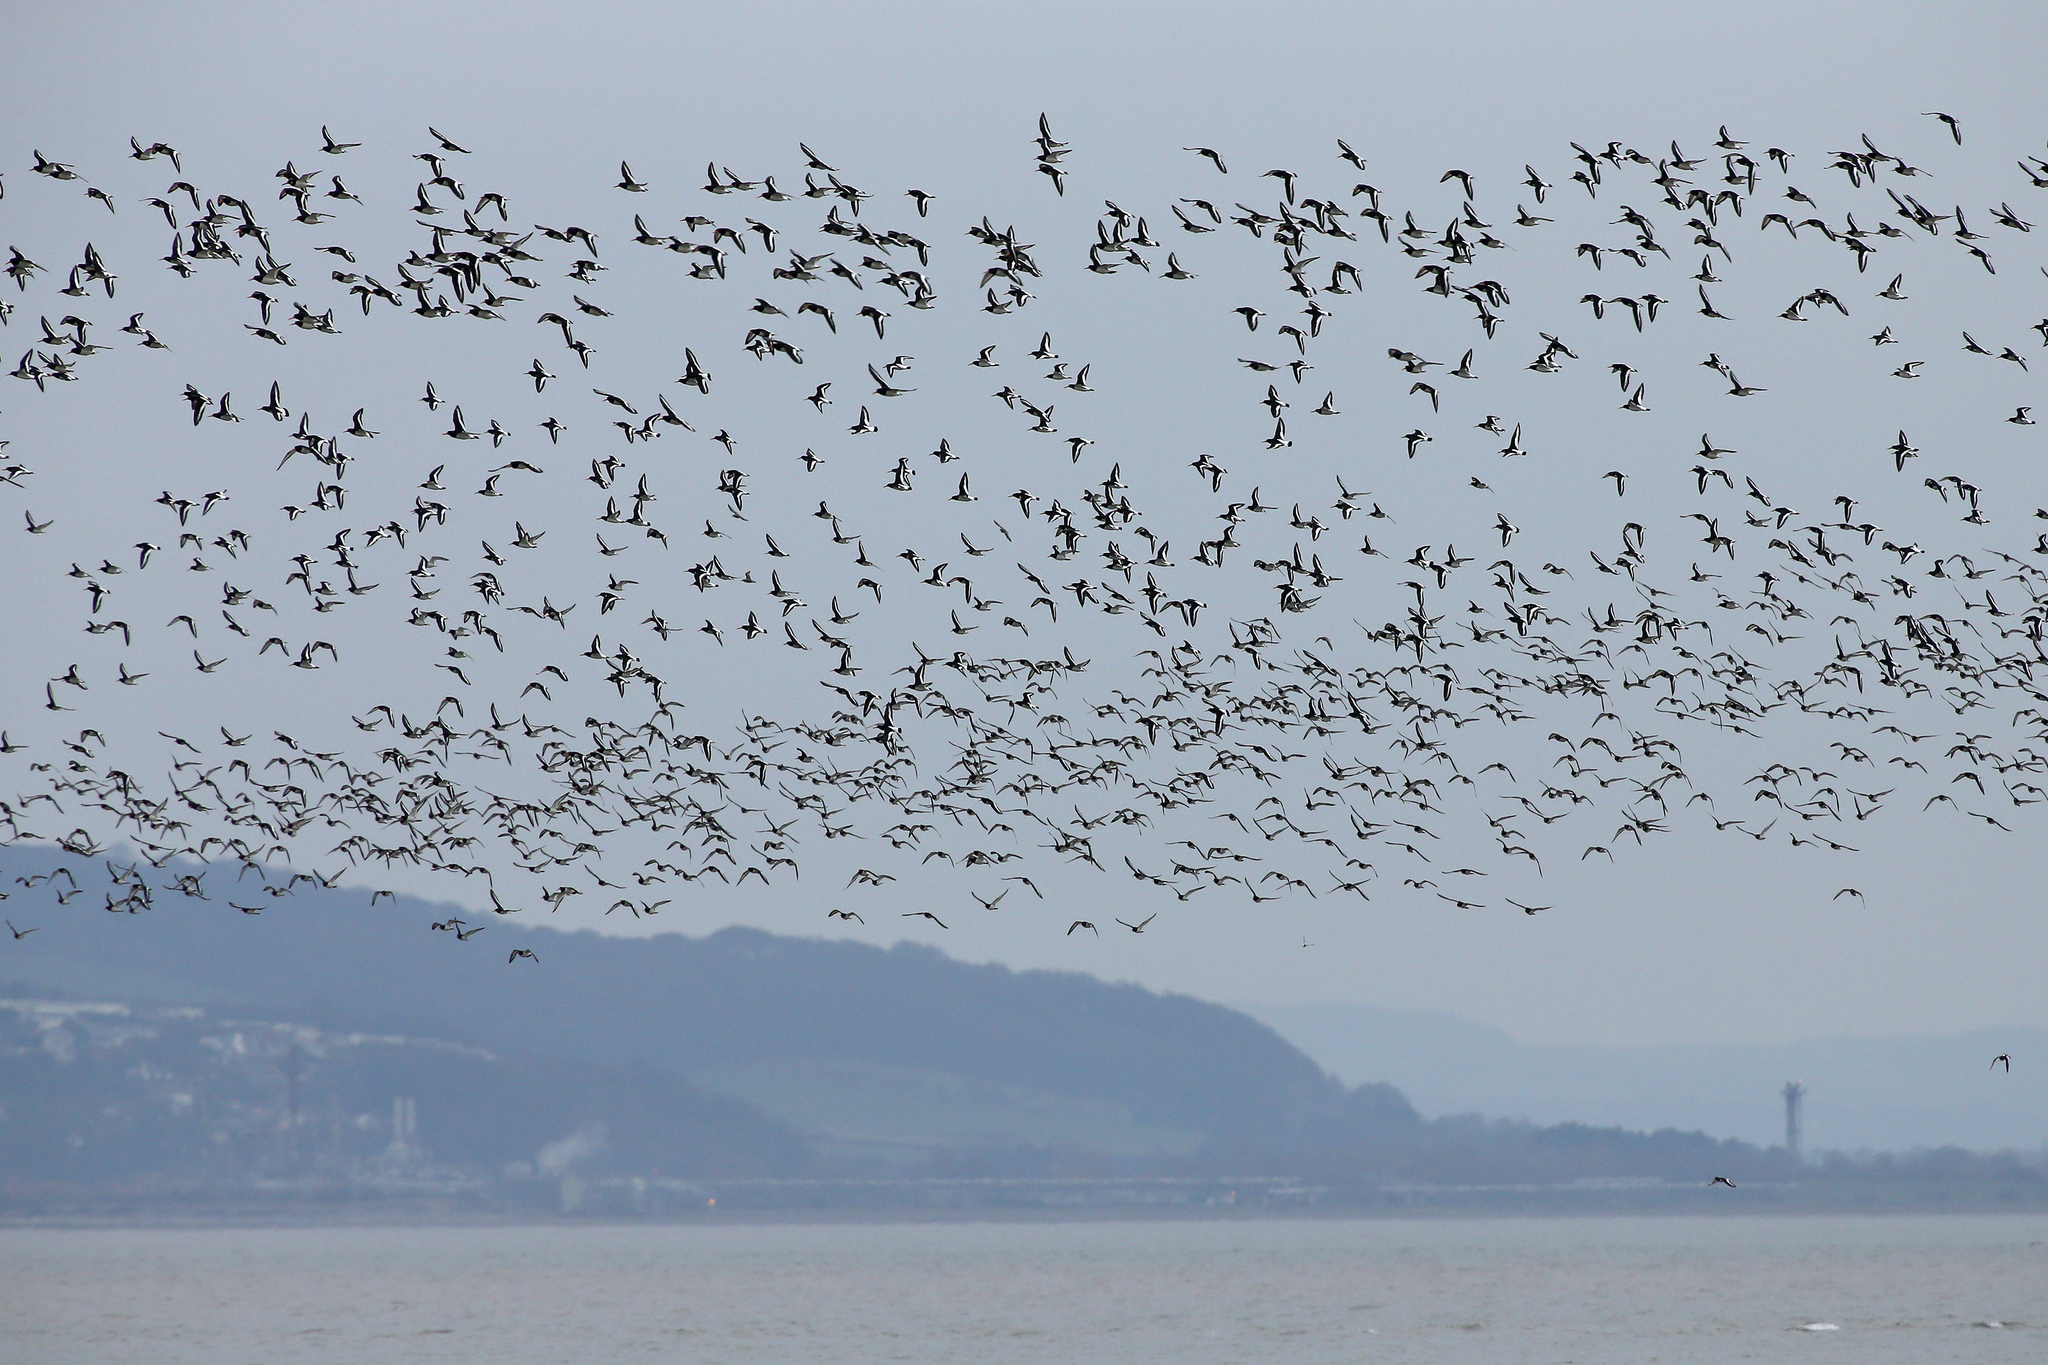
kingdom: Animalia
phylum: Chordata
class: Aves
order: Charadriiformes
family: Haematopodidae
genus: Haematopus
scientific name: Haematopus ostralegus
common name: Eurasian oystercatcher
